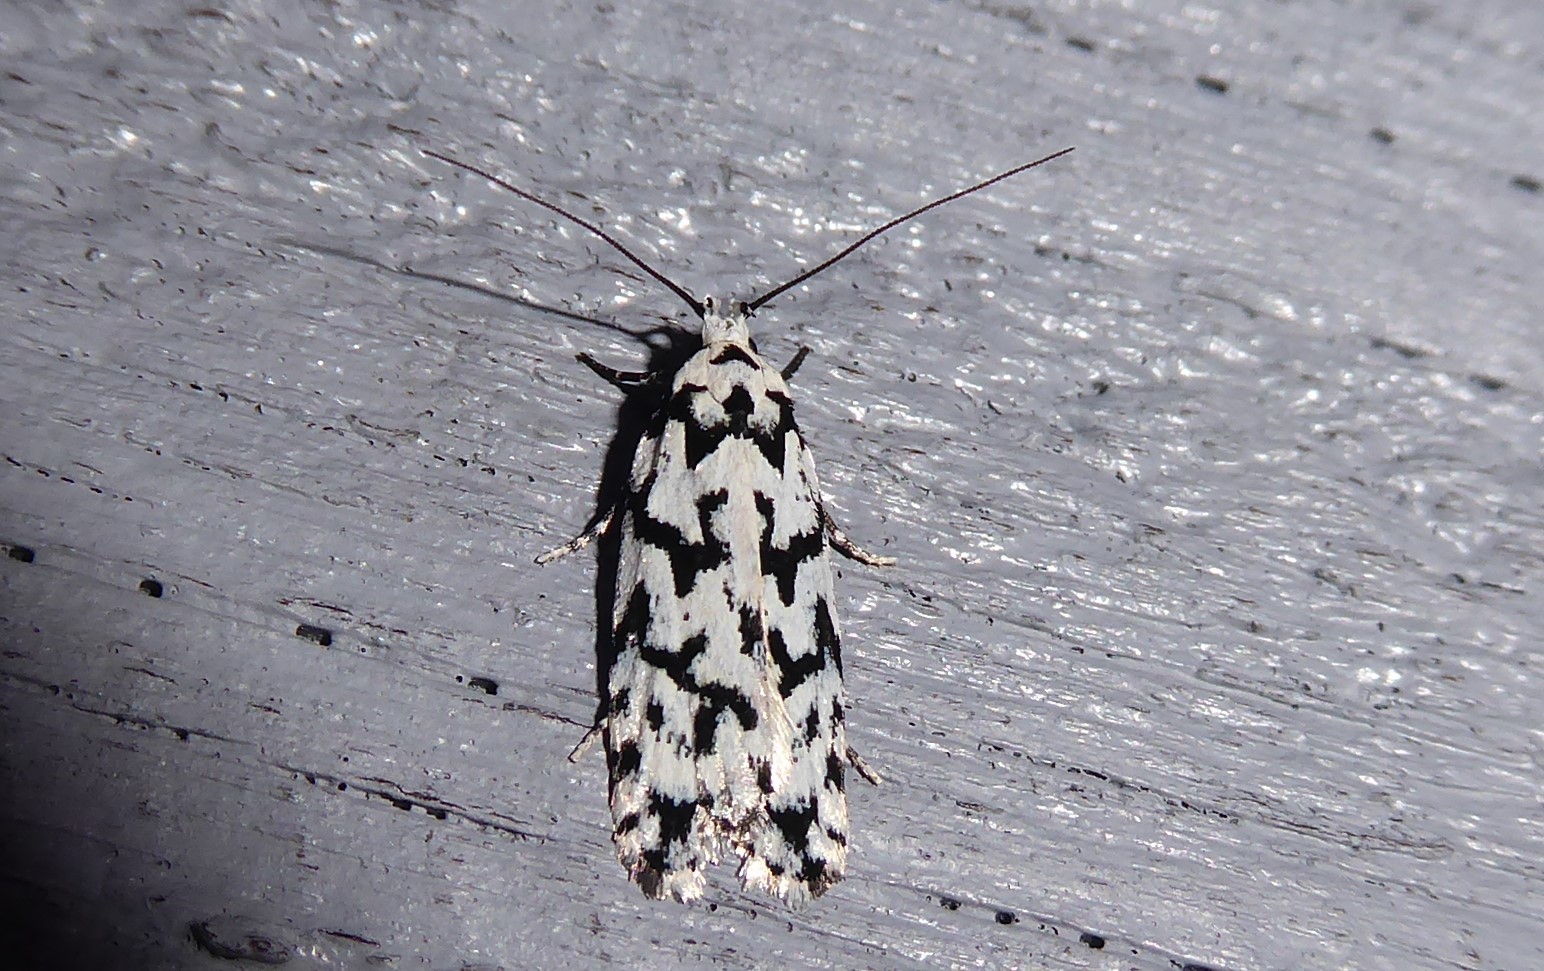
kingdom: Animalia
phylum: Arthropoda
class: Insecta
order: Lepidoptera
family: Oecophoridae
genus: Izatha
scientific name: Izatha katadiktya
